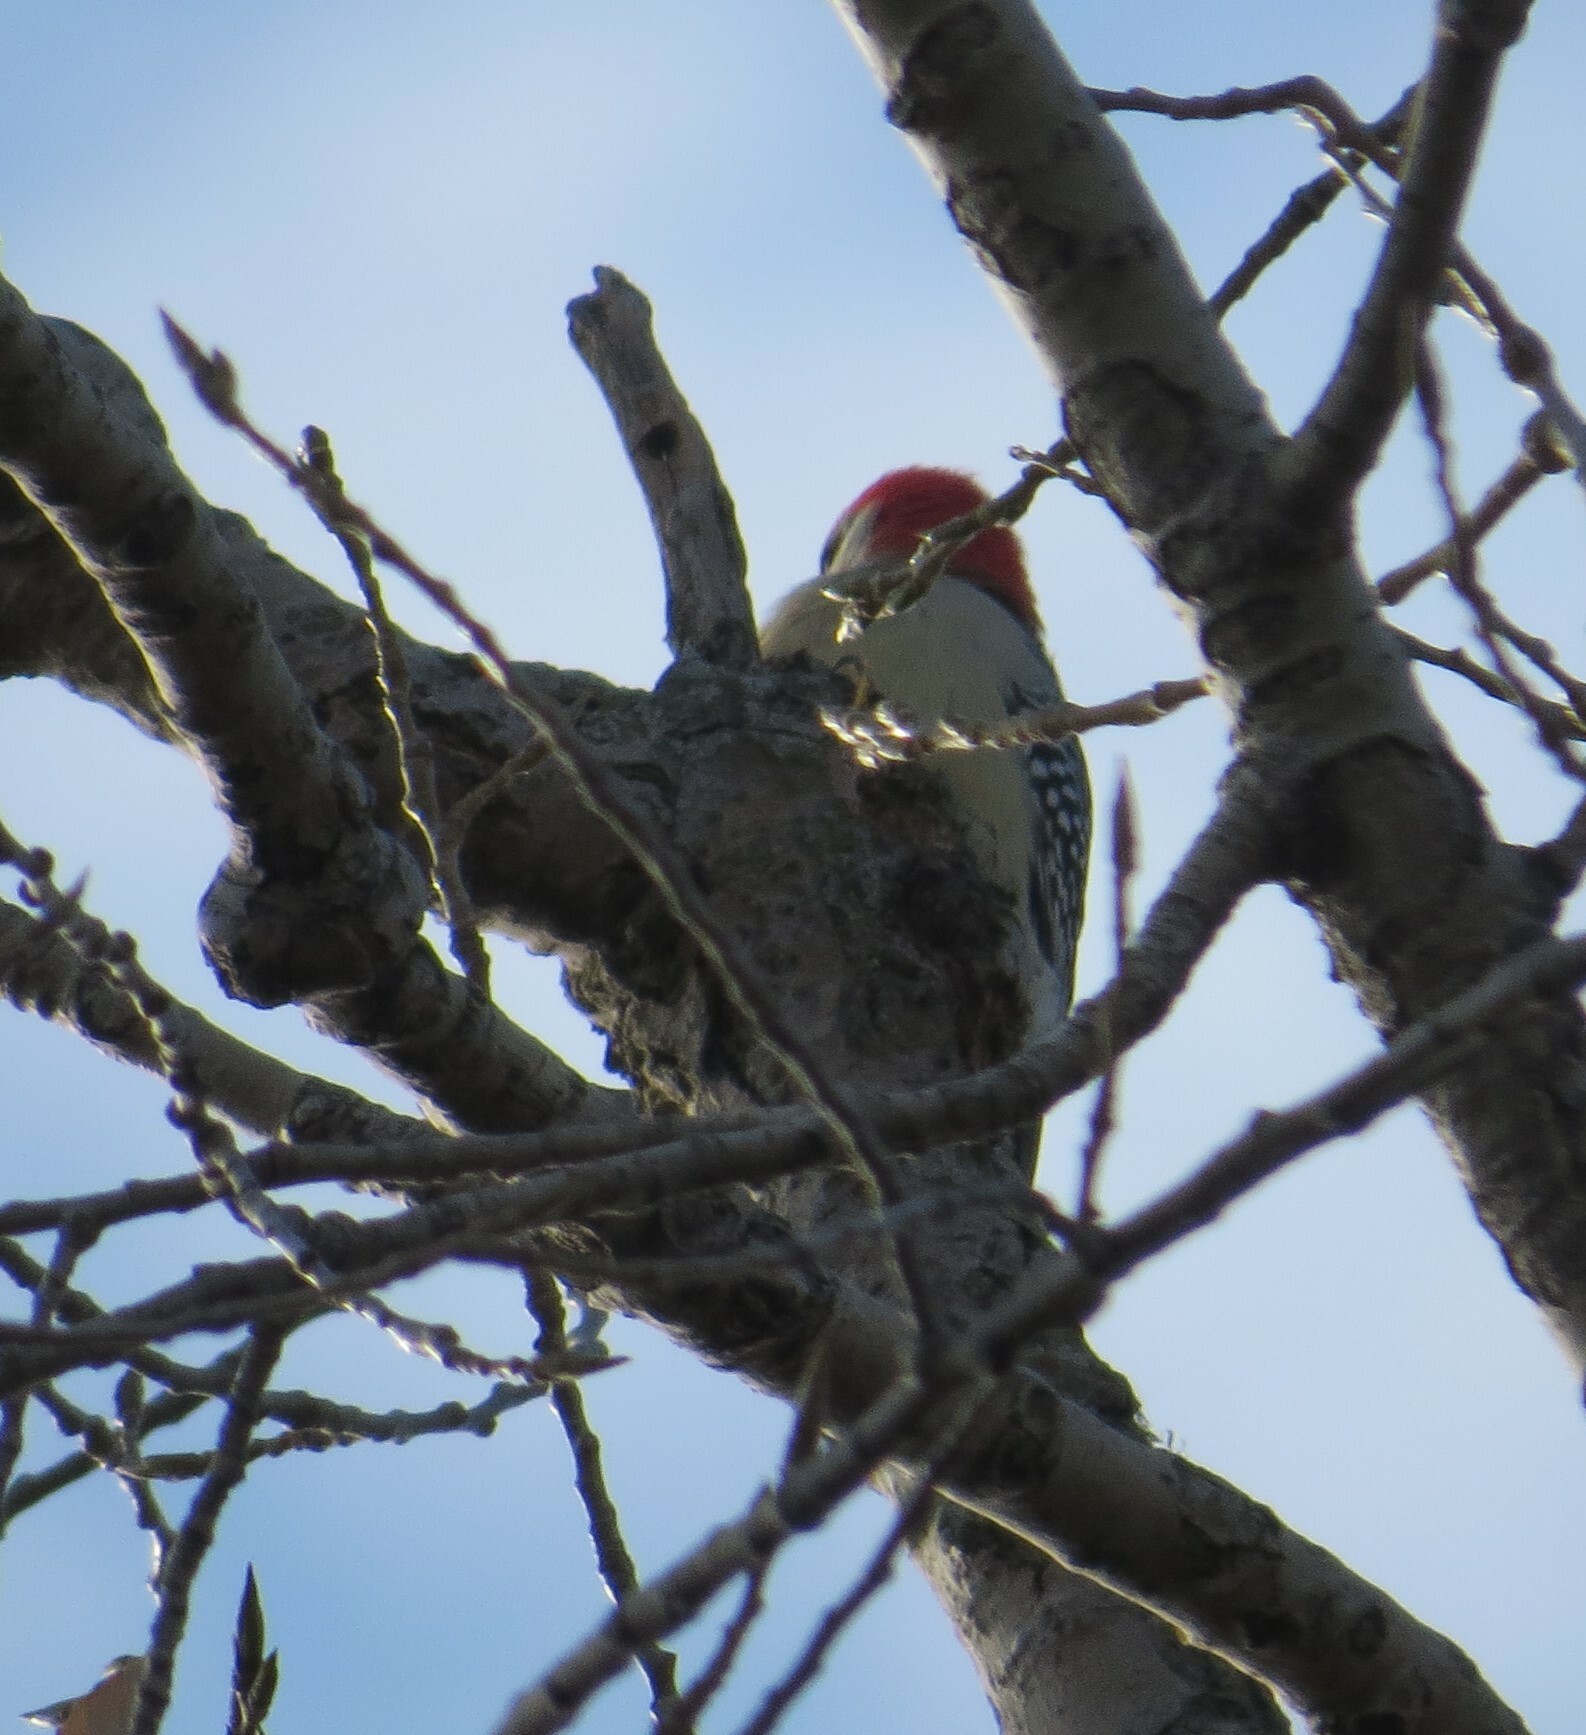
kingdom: Animalia
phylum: Chordata
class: Aves
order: Piciformes
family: Picidae
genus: Melanerpes
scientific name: Melanerpes carolinus
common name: Red-bellied woodpecker
